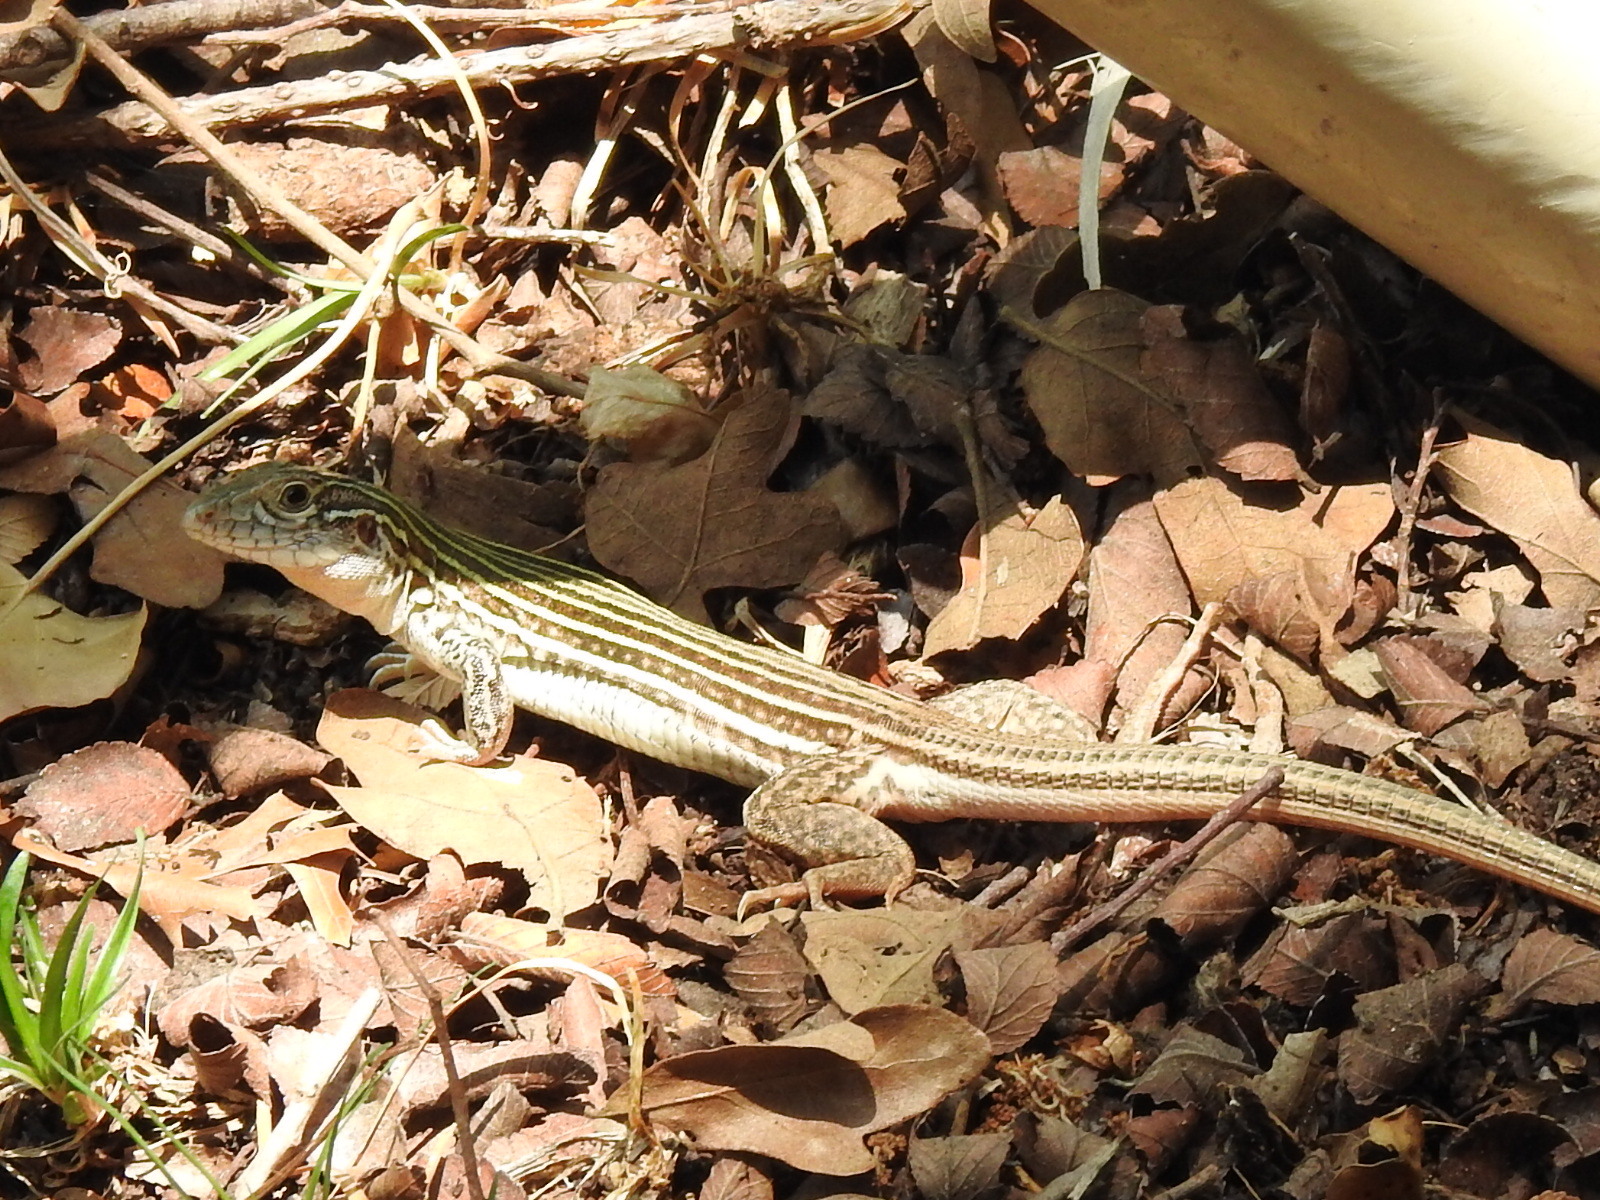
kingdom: Animalia
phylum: Chordata
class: Squamata
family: Teiidae
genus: Aspidoscelis
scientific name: Aspidoscelis gularis
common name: Eastern spotted whiptail
